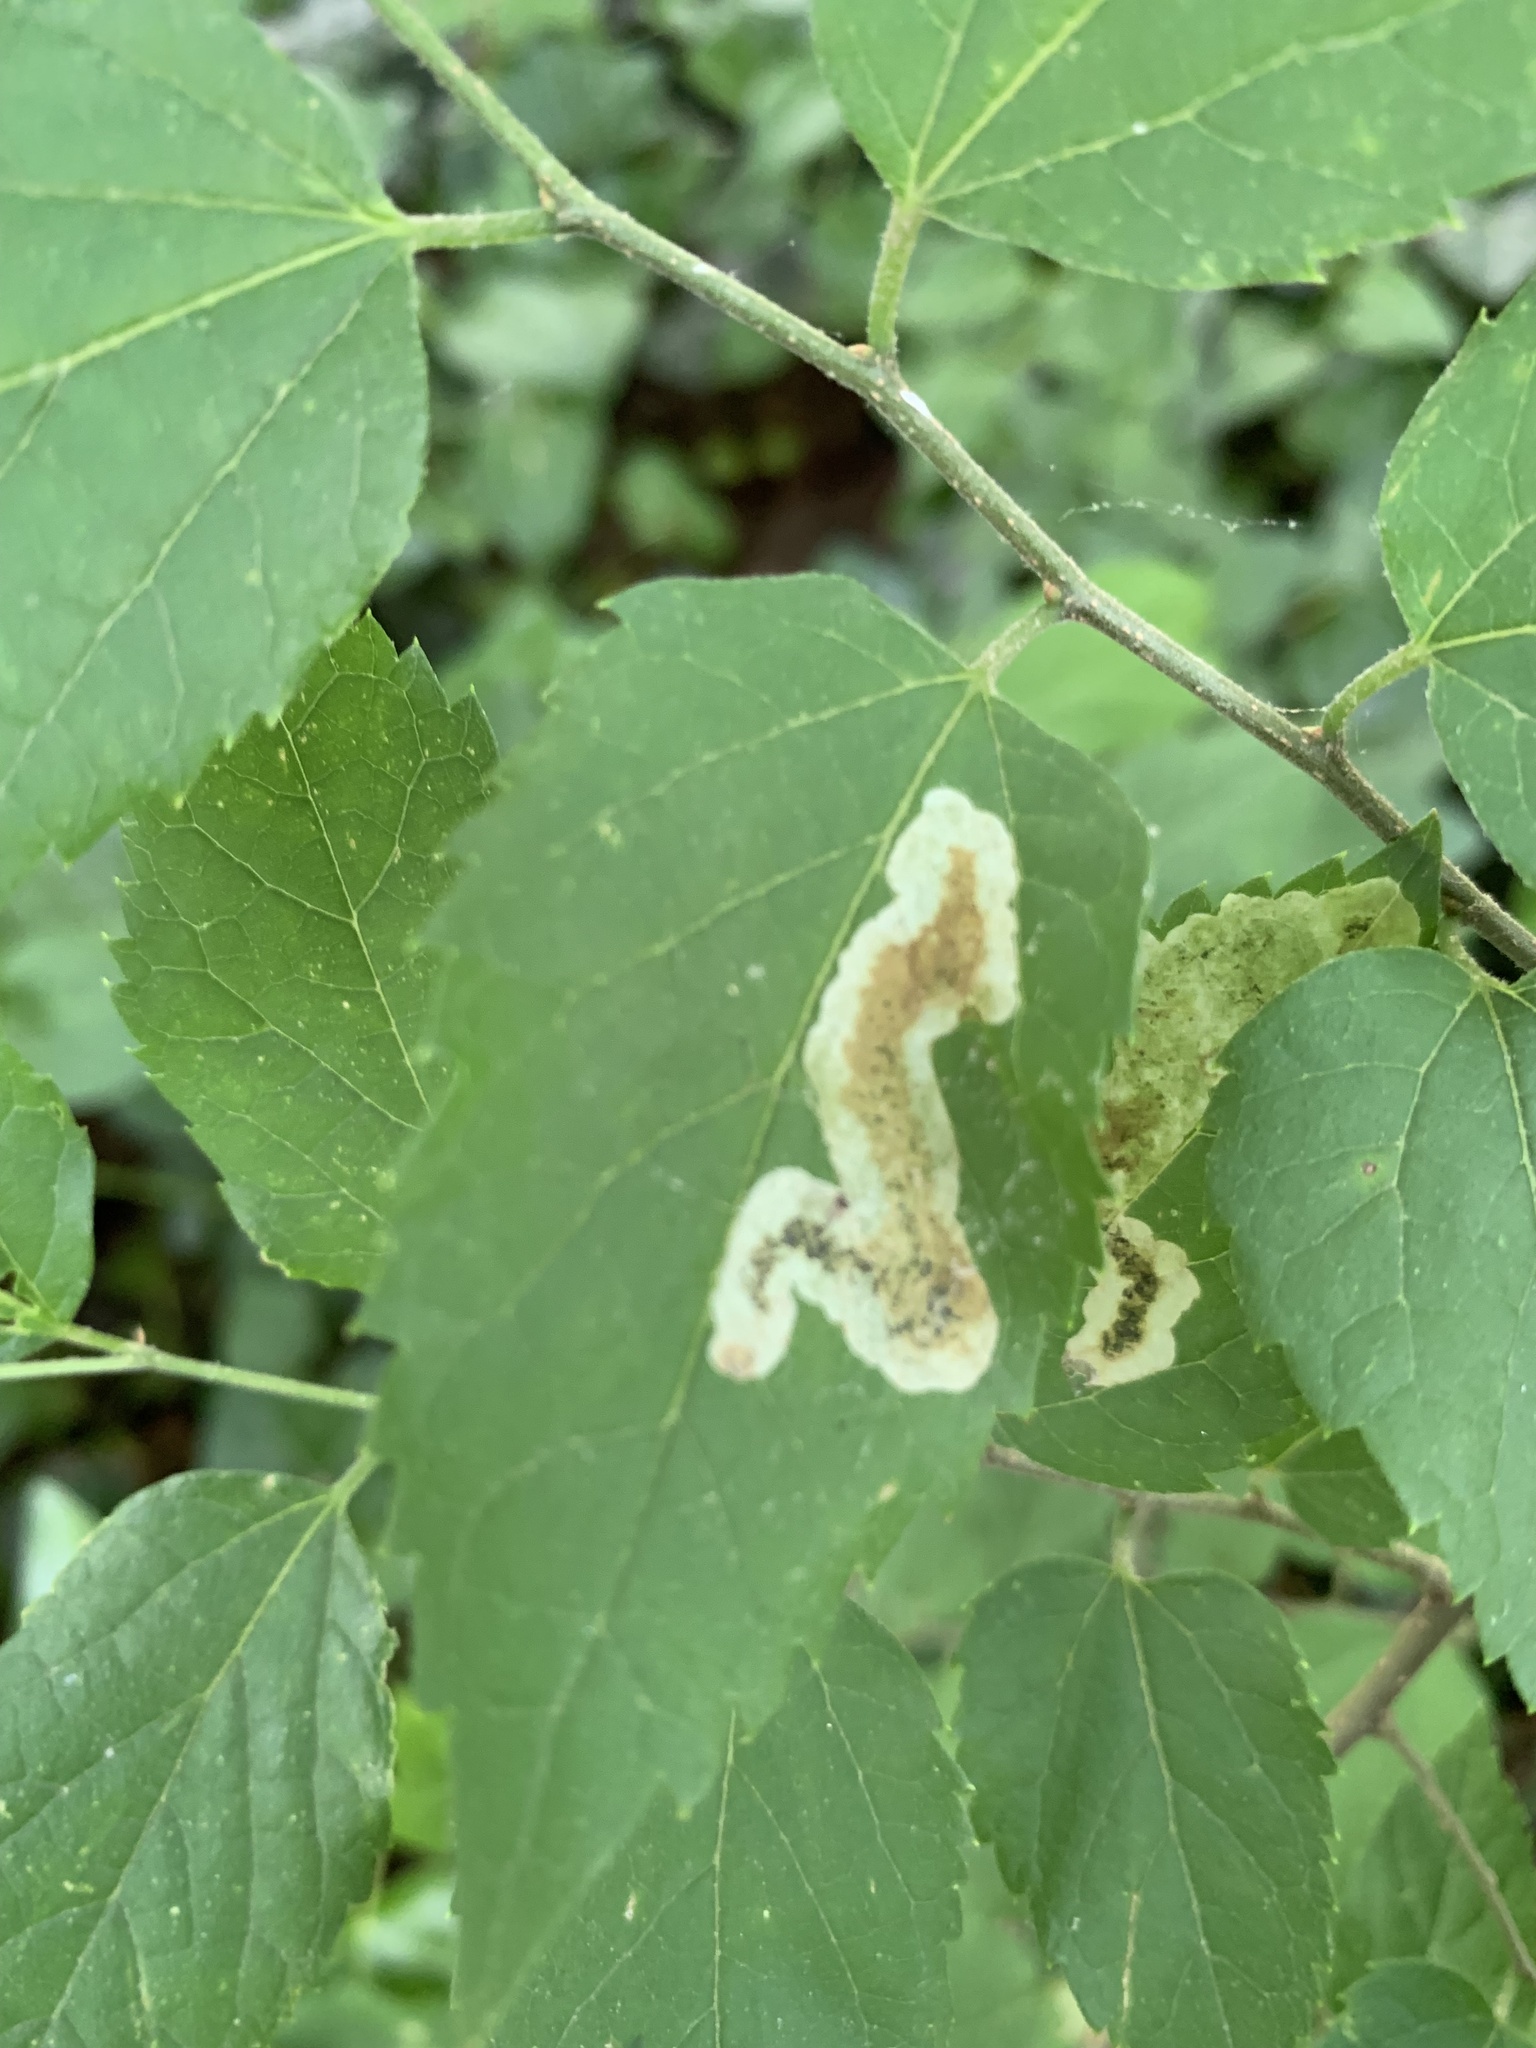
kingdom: Animalia
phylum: Arthropoda
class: Insecta
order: Diptera
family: Agromyzidae
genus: Agromyza
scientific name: Agromyza pallidiseta
